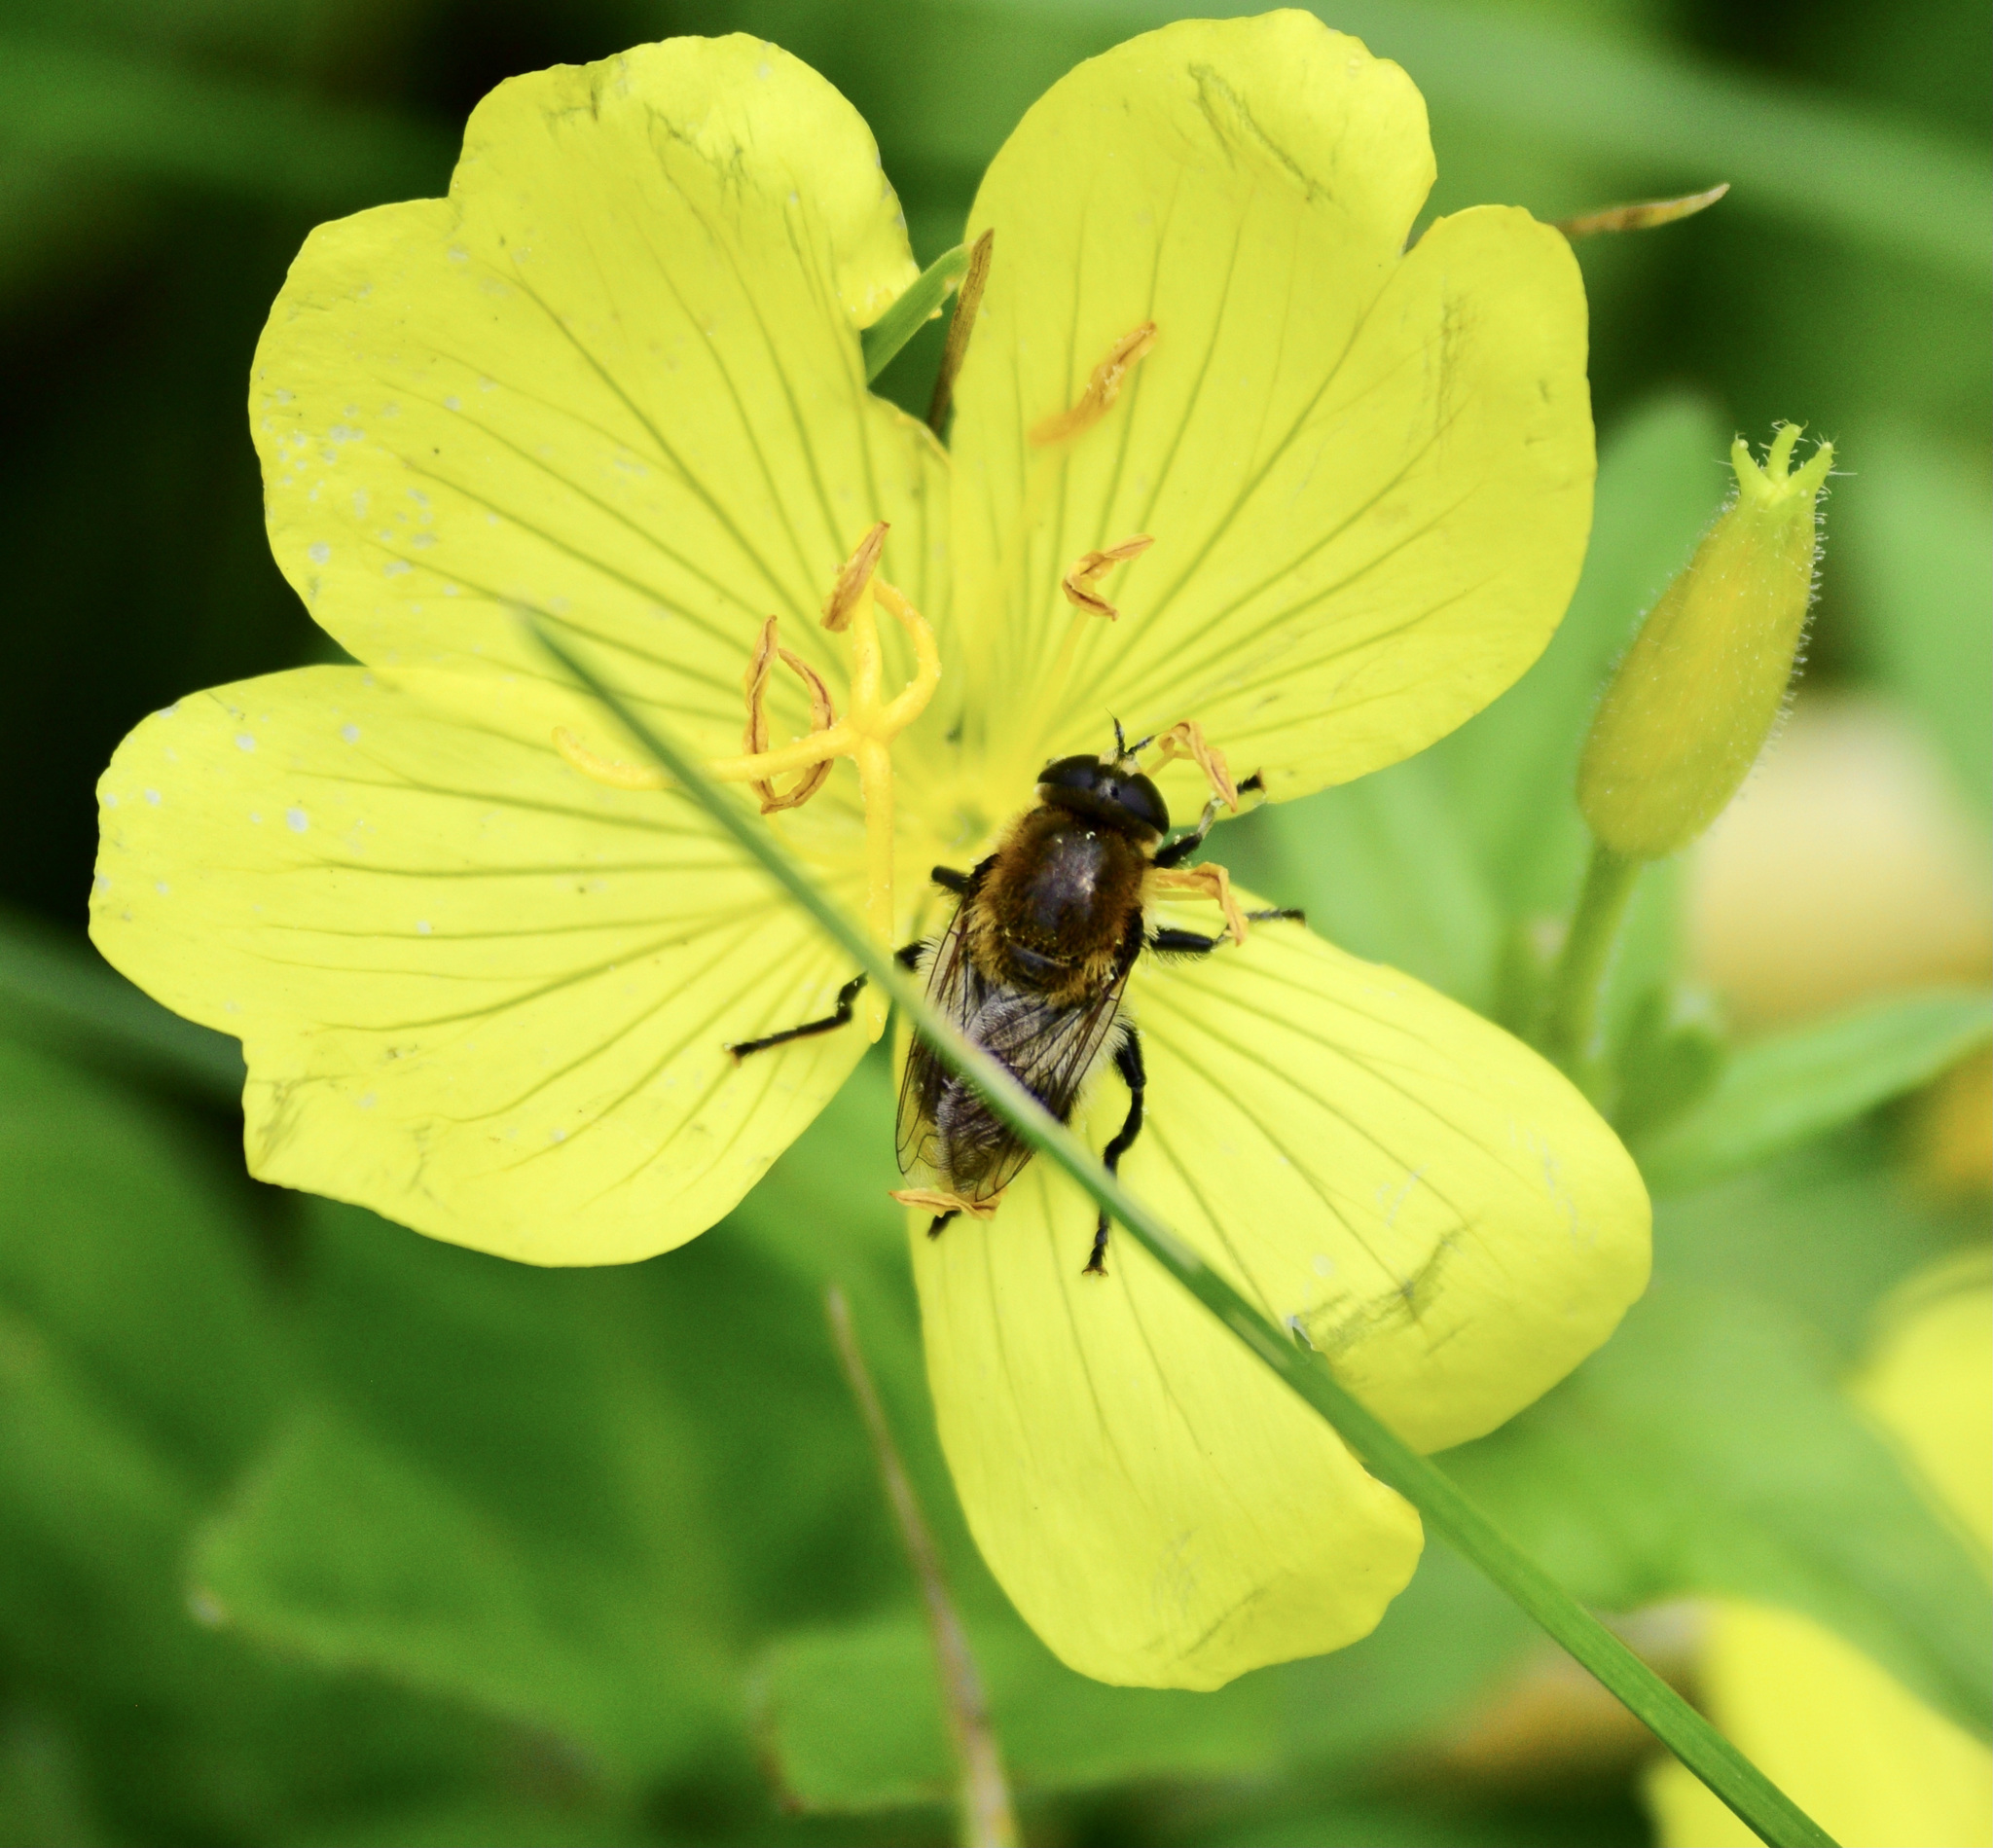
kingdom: Animalia
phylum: Arthropoda
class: Insecta
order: Diptera
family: Syrphidae
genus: Merodon
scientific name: Merodon equestris
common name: Greater bulb-fly
